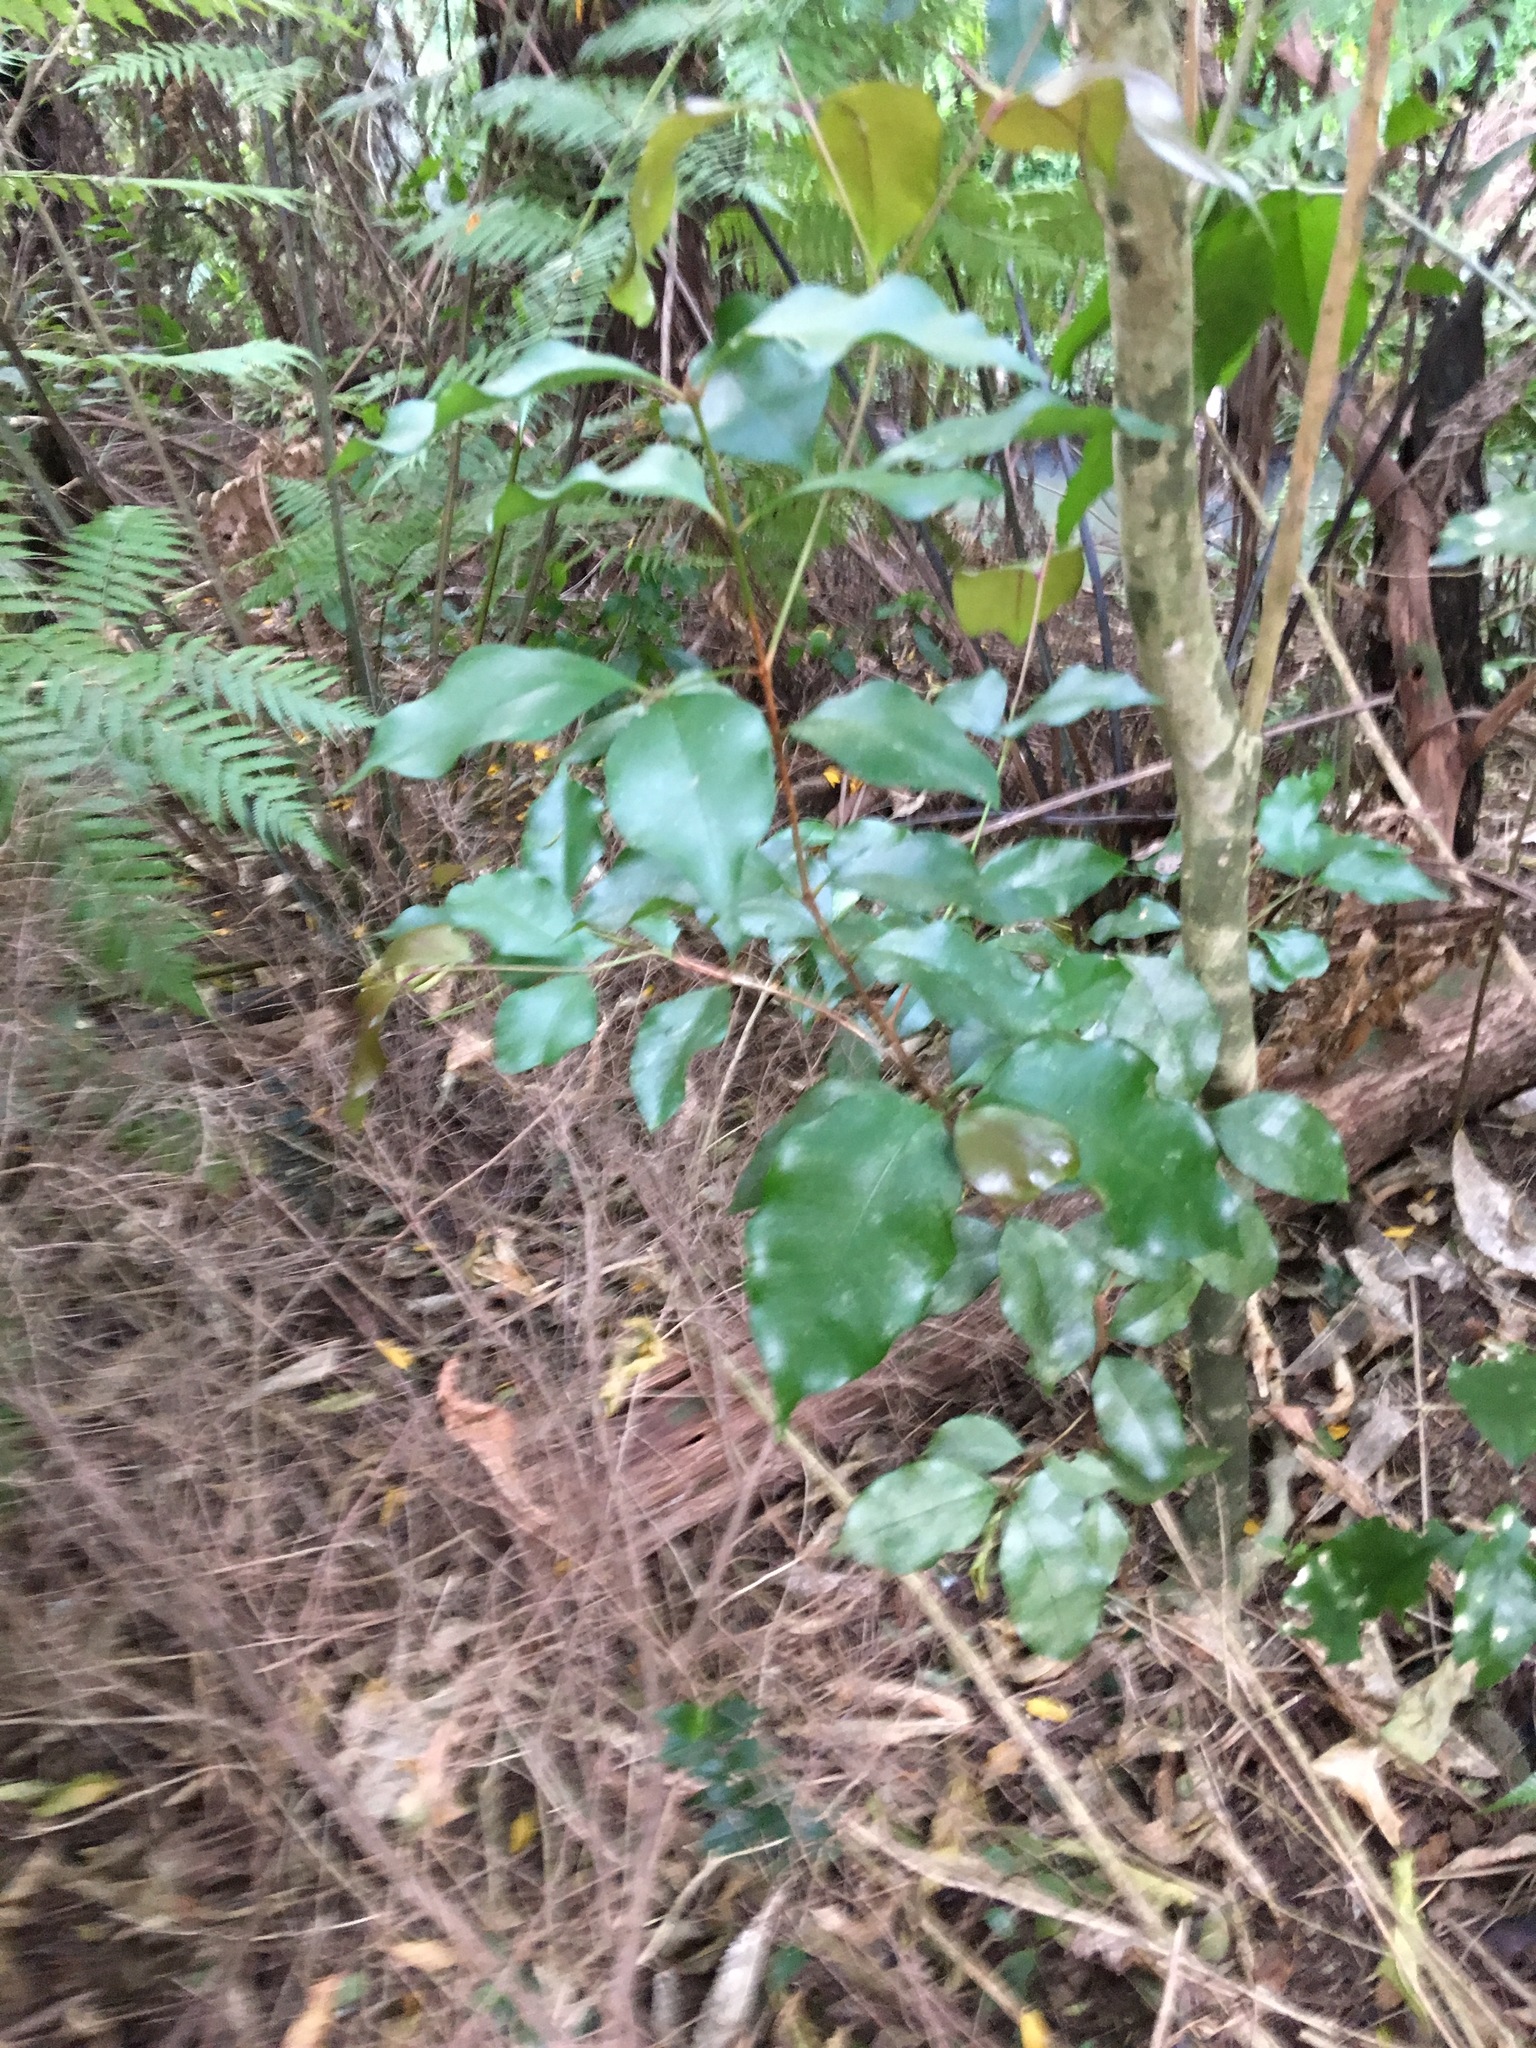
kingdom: Plantae
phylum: Tracheophyta
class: Magnoliopsida
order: Myrtales
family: Myrtaceae
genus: Syzygium
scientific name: Syzygium smithii
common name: Lilly-pilly
